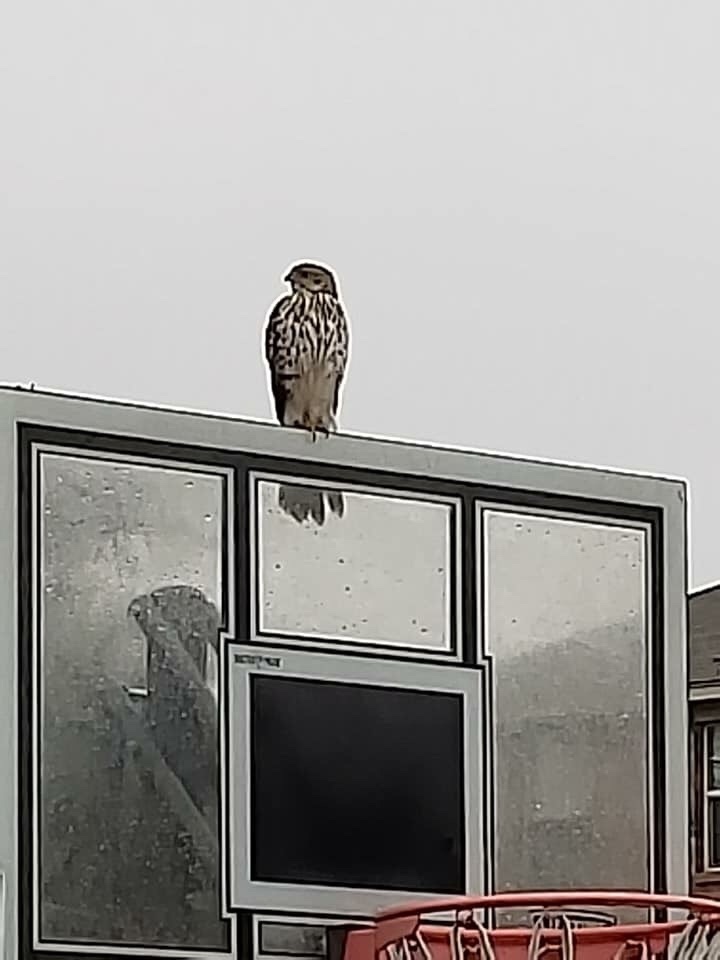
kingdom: Animalia
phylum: Chordata
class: Aves
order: Accipitriformes
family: Accipitridae
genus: Accipiter
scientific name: Accipiter cooperii
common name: Cooper's hawk
